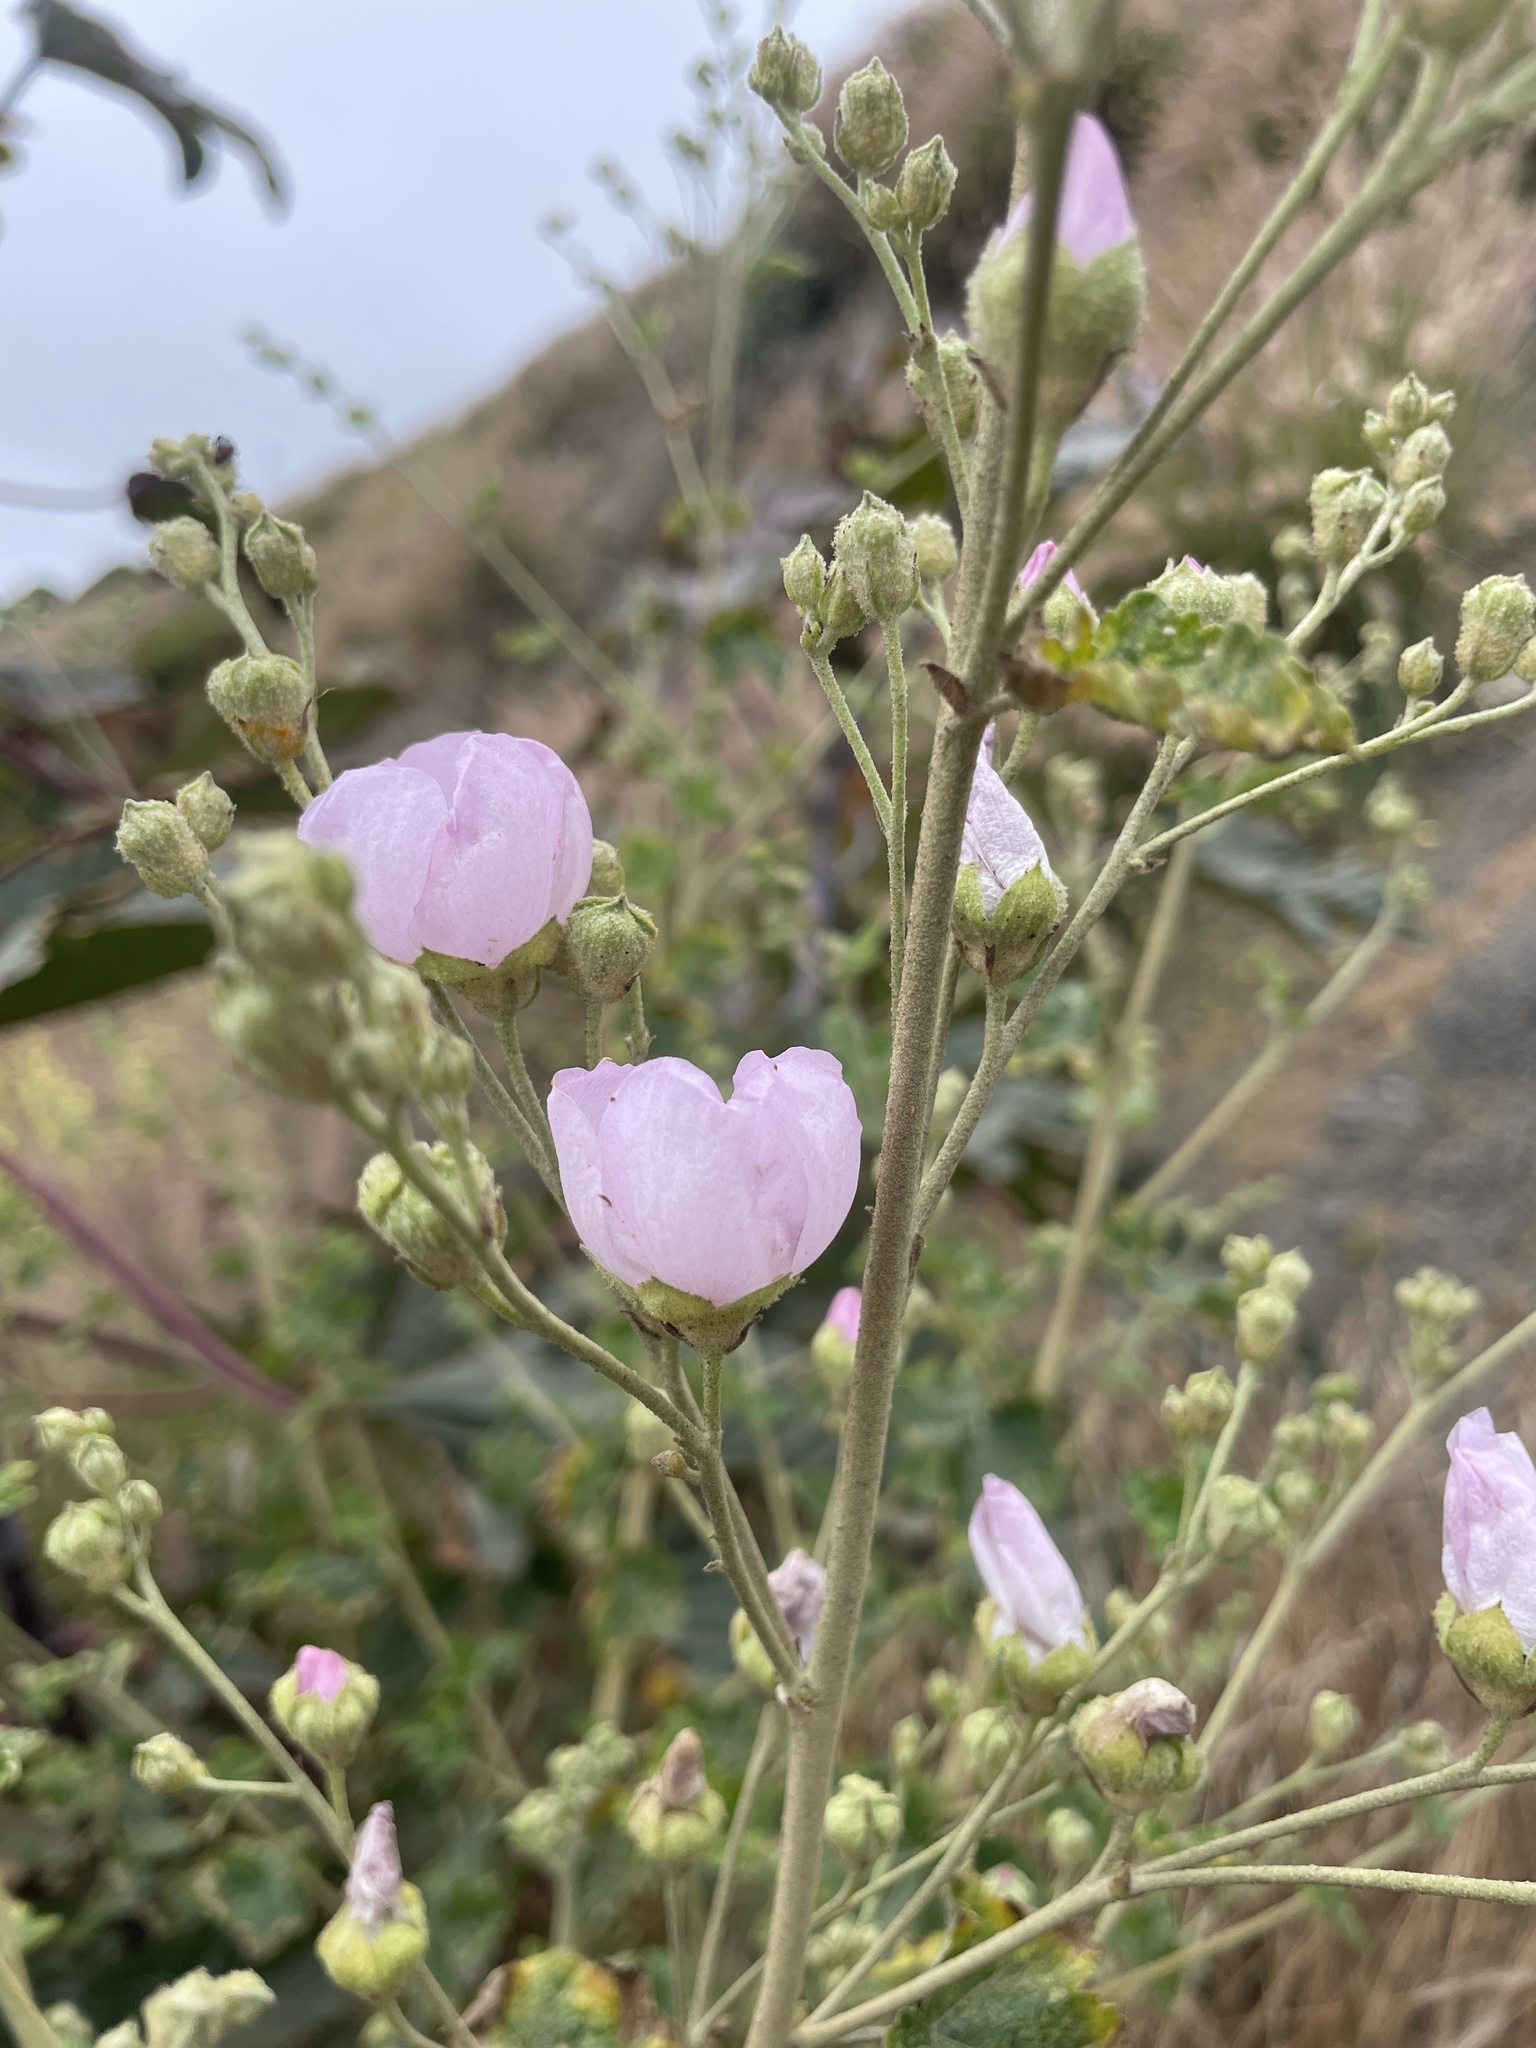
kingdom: Plantae
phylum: Tracheophyta
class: Magnoliopsida
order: Malvales
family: Malvaceae
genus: Malacothamnus
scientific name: Malacothamnus fasciculatus
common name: Sant cruz island bush-mallow
